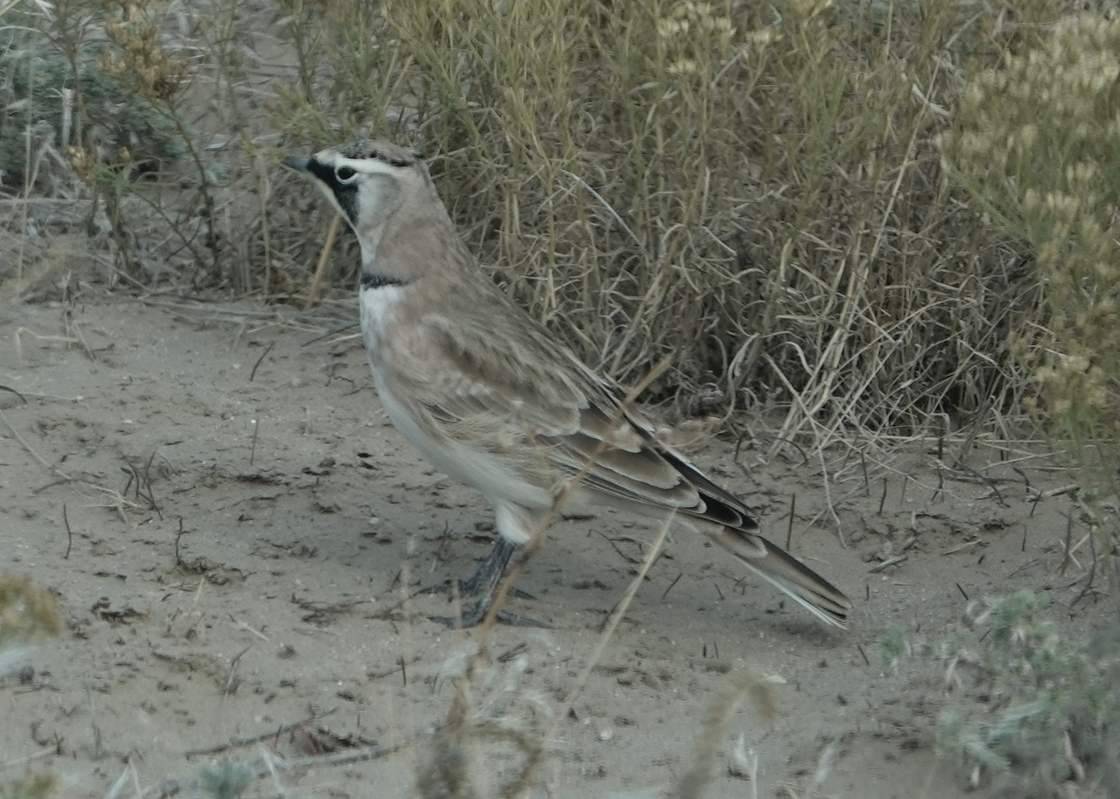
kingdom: Animalia
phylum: Chordata
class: Aves
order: Passeriformes
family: Alaudidae
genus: Eremophila
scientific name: Eremophila alpestris
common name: Horned lark
